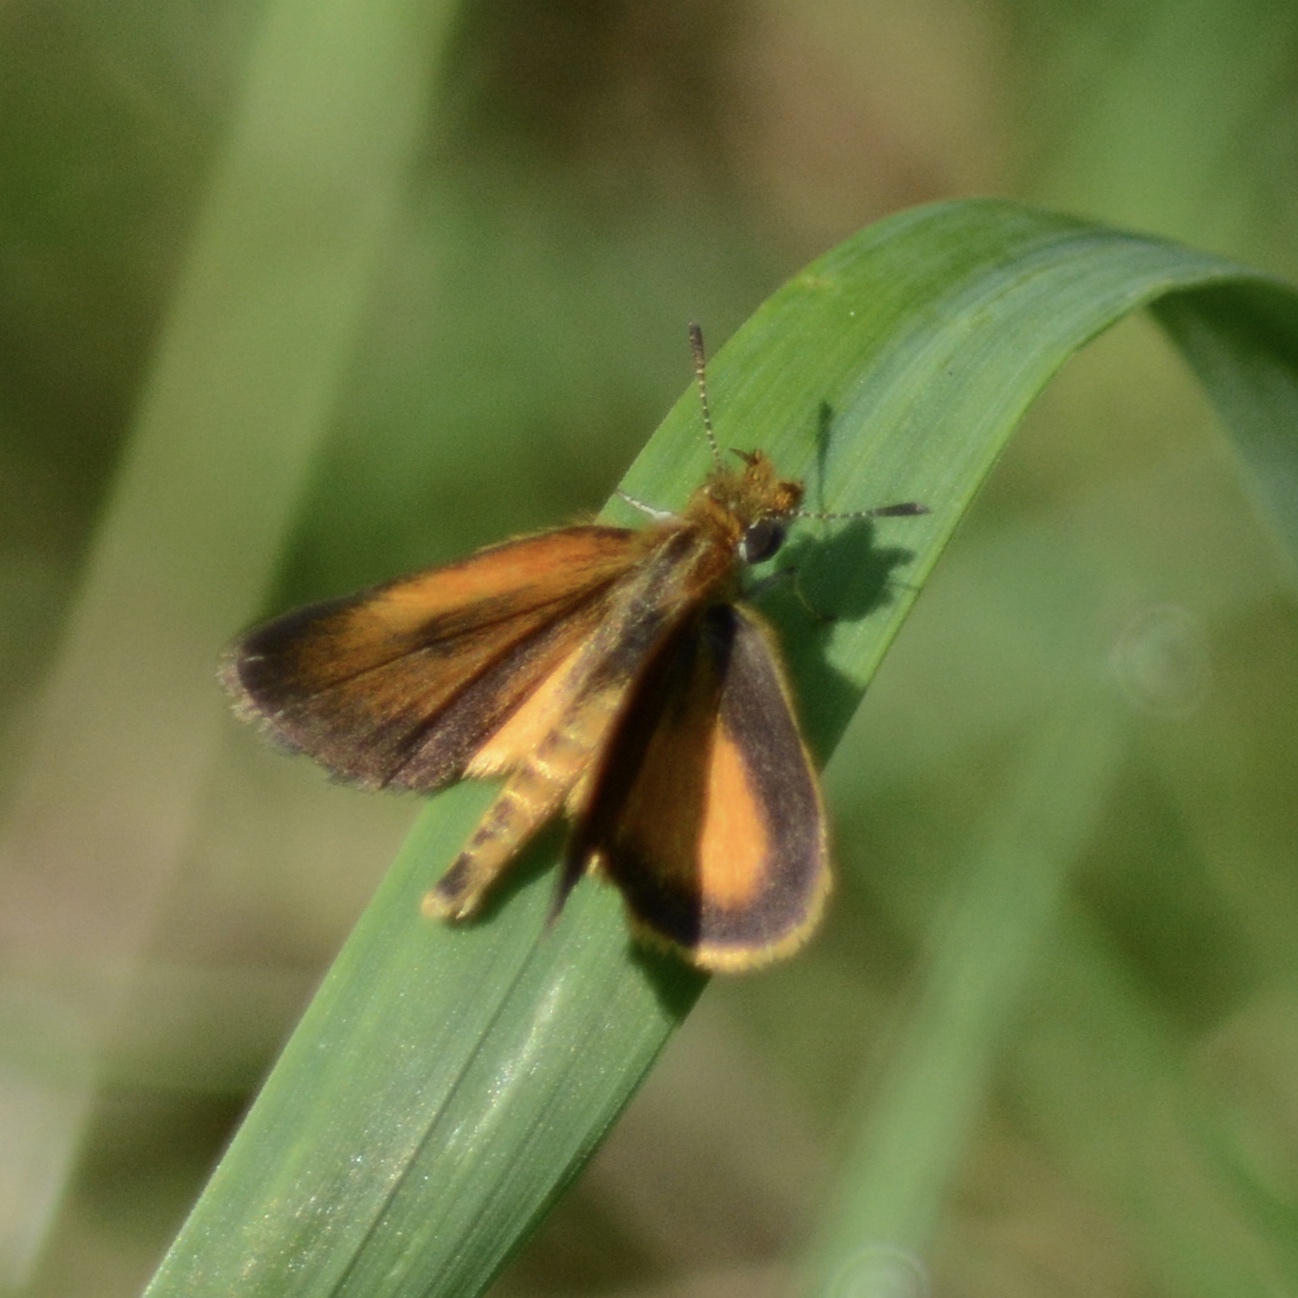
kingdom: Animalia
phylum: Arthropoda
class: Insecta
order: Lepidoptera
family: Hesperiidae
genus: Ancyloxypha
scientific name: Ancyloxypha numitor
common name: Least skipper
